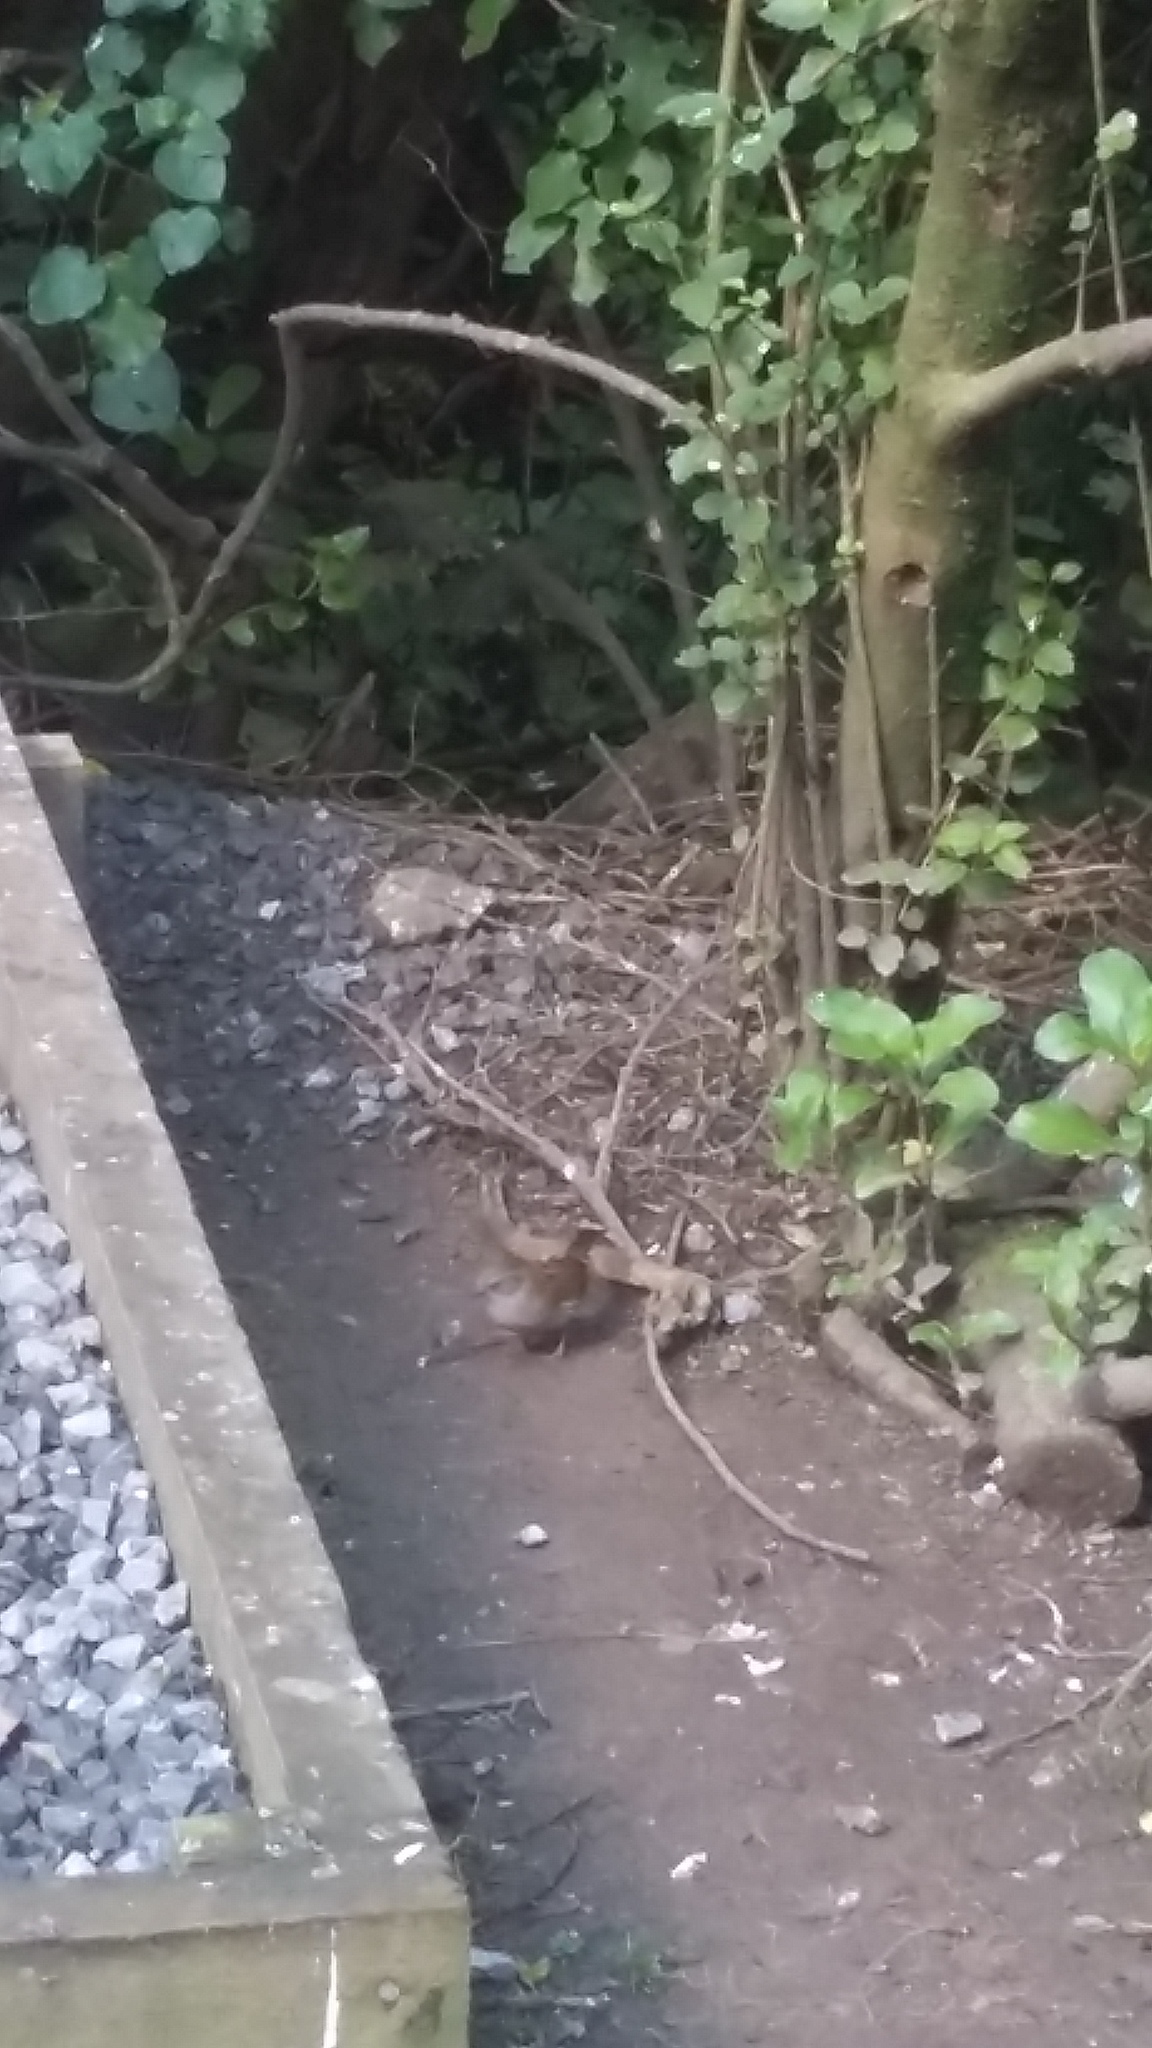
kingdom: Animalia
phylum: Chordata
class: Aves
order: Passeriformes
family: Prunellidae
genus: Prunella
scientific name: Prunella modularis
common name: Dunnock
